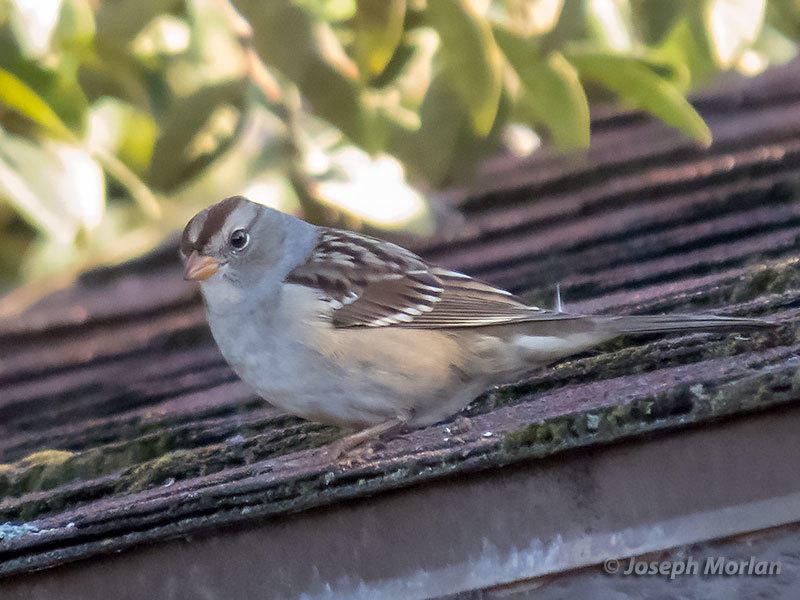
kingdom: Animalia
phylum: Chordata
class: Aves
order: Passeriformes
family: Passerellidae
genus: Zonotrichia
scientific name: Zonotrichia leucophrys
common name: White-crowned sparrow
